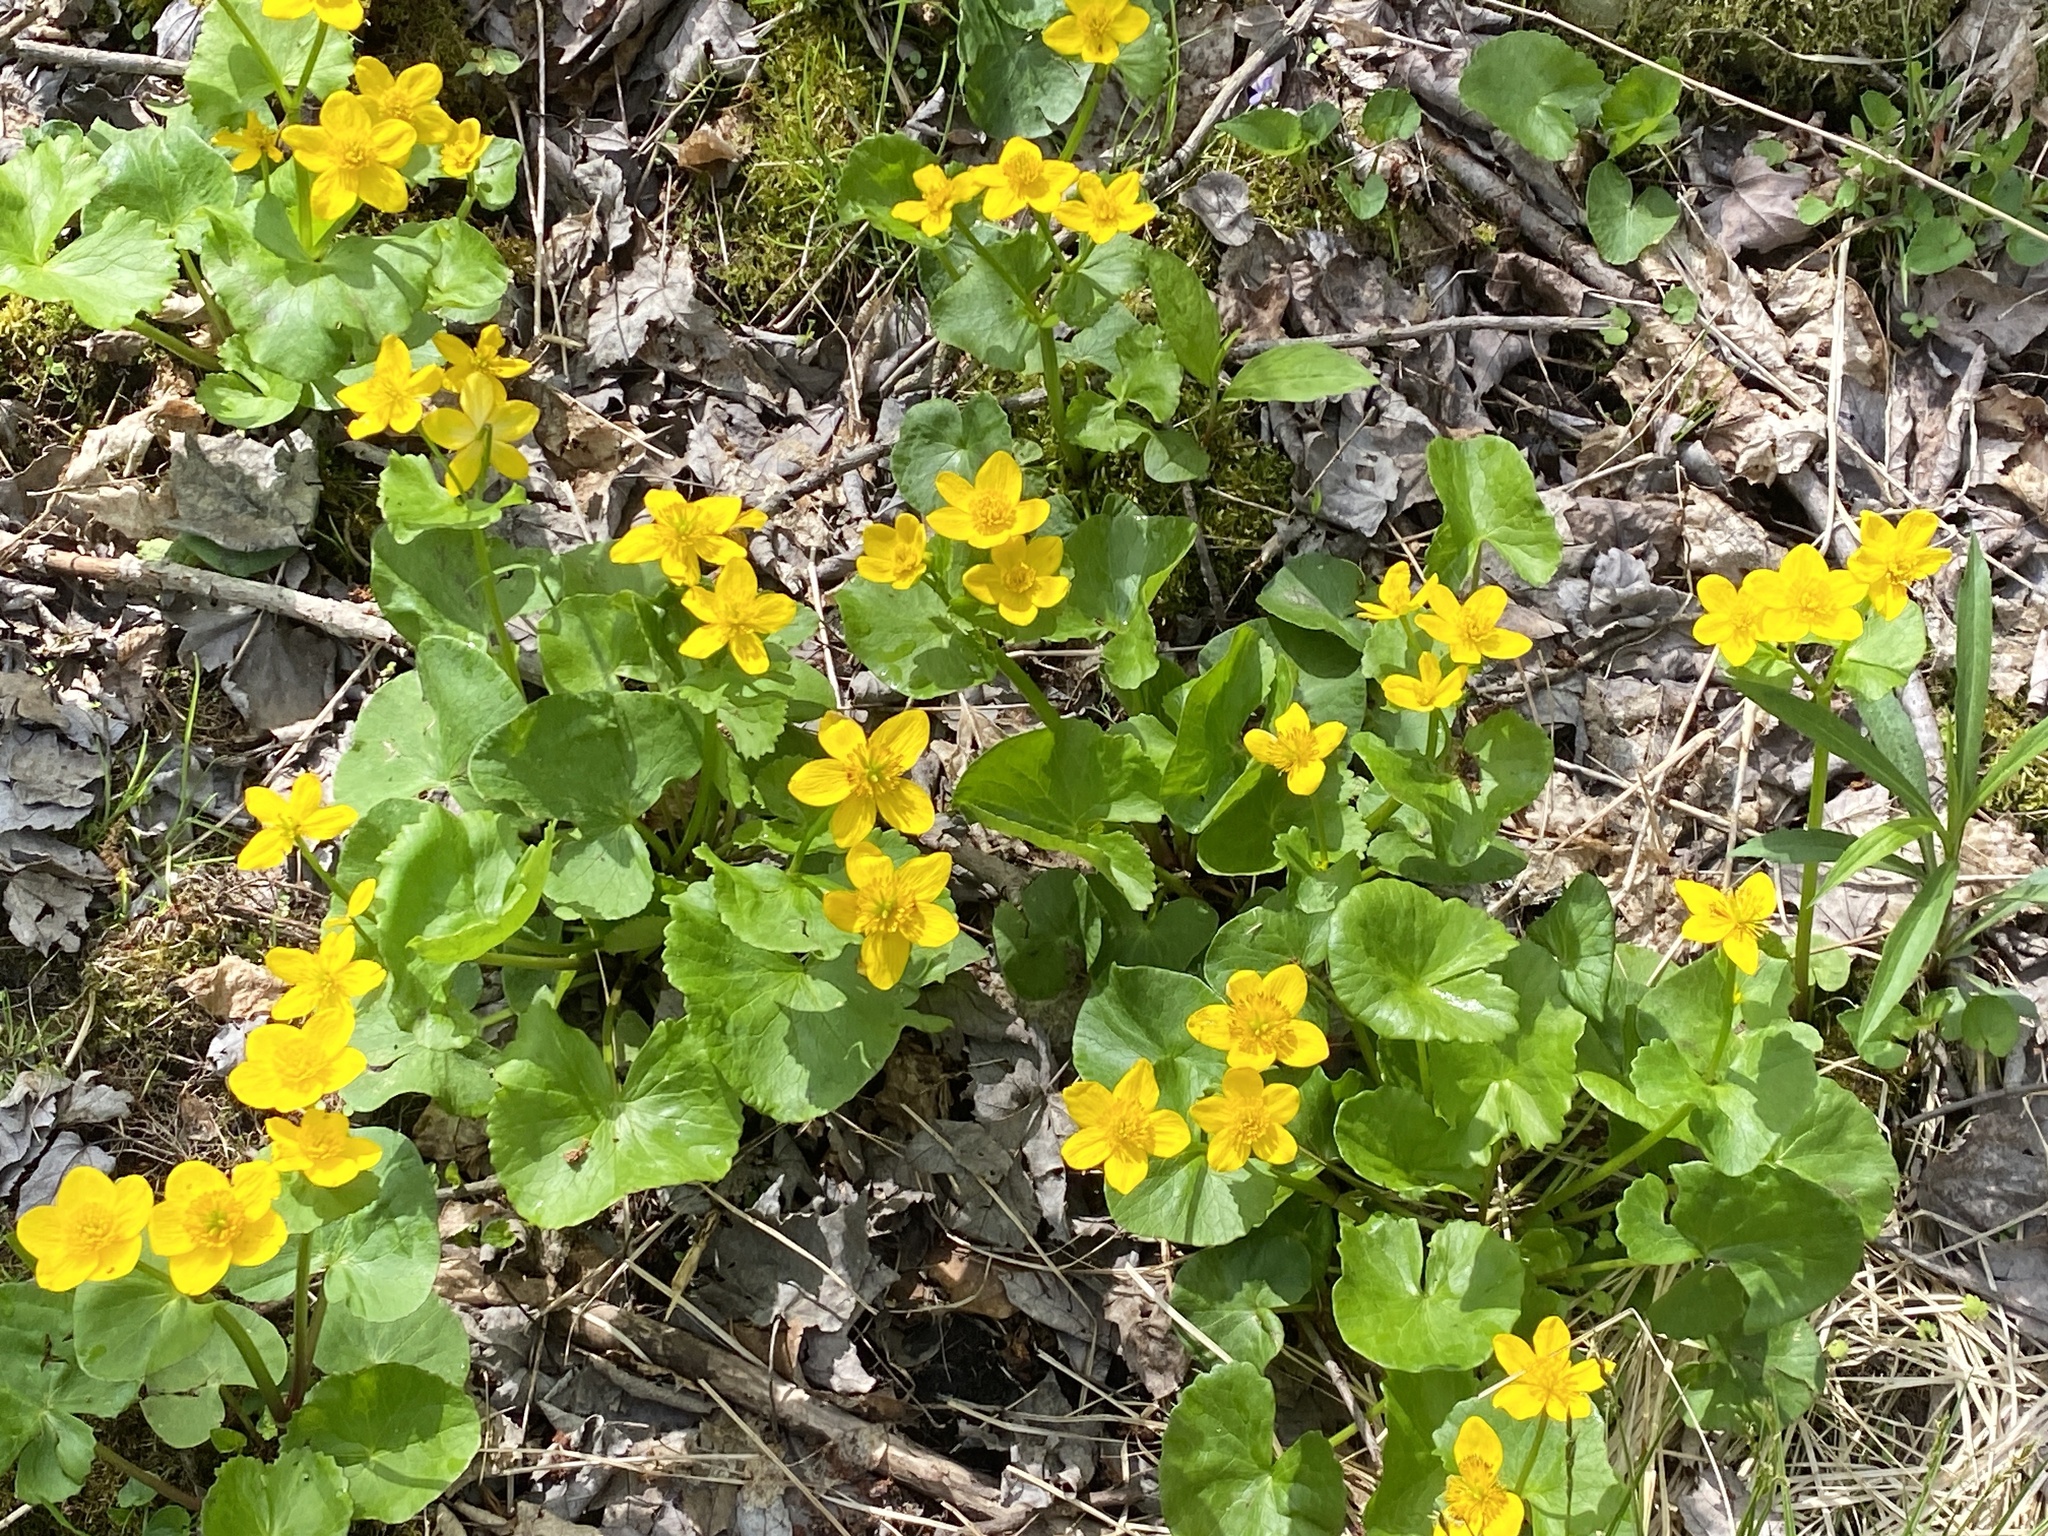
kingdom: Plantae
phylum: Tracheophyta
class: Magnoliopsida
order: Ranunculales
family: Ranunculaceae
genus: Caltha
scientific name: Caltha palustris
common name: Marsh marigold
